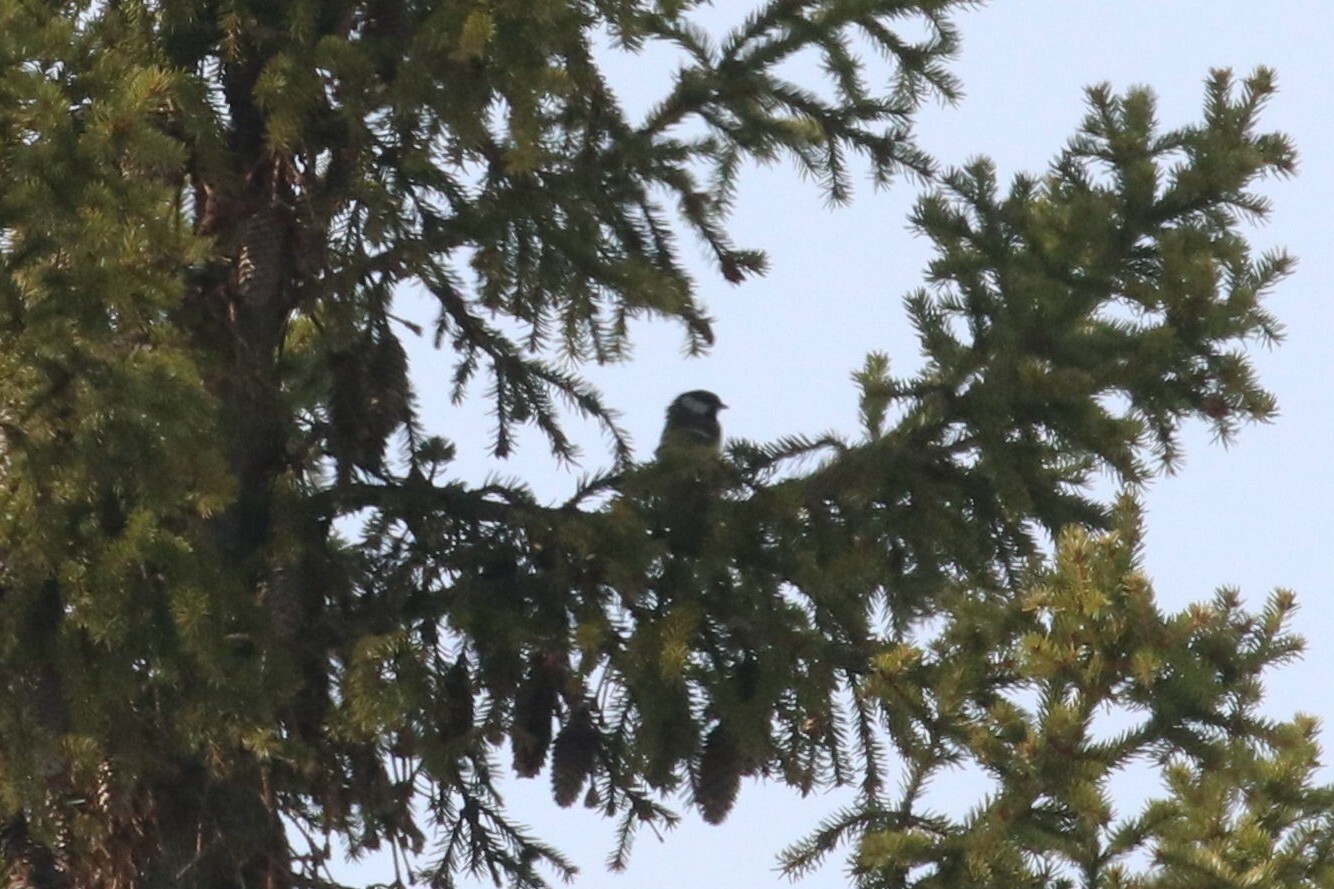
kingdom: Animalia
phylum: Chordata
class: Aves
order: Passeriformes
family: Paridae
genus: Parus
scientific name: Parus major
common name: Great tit
